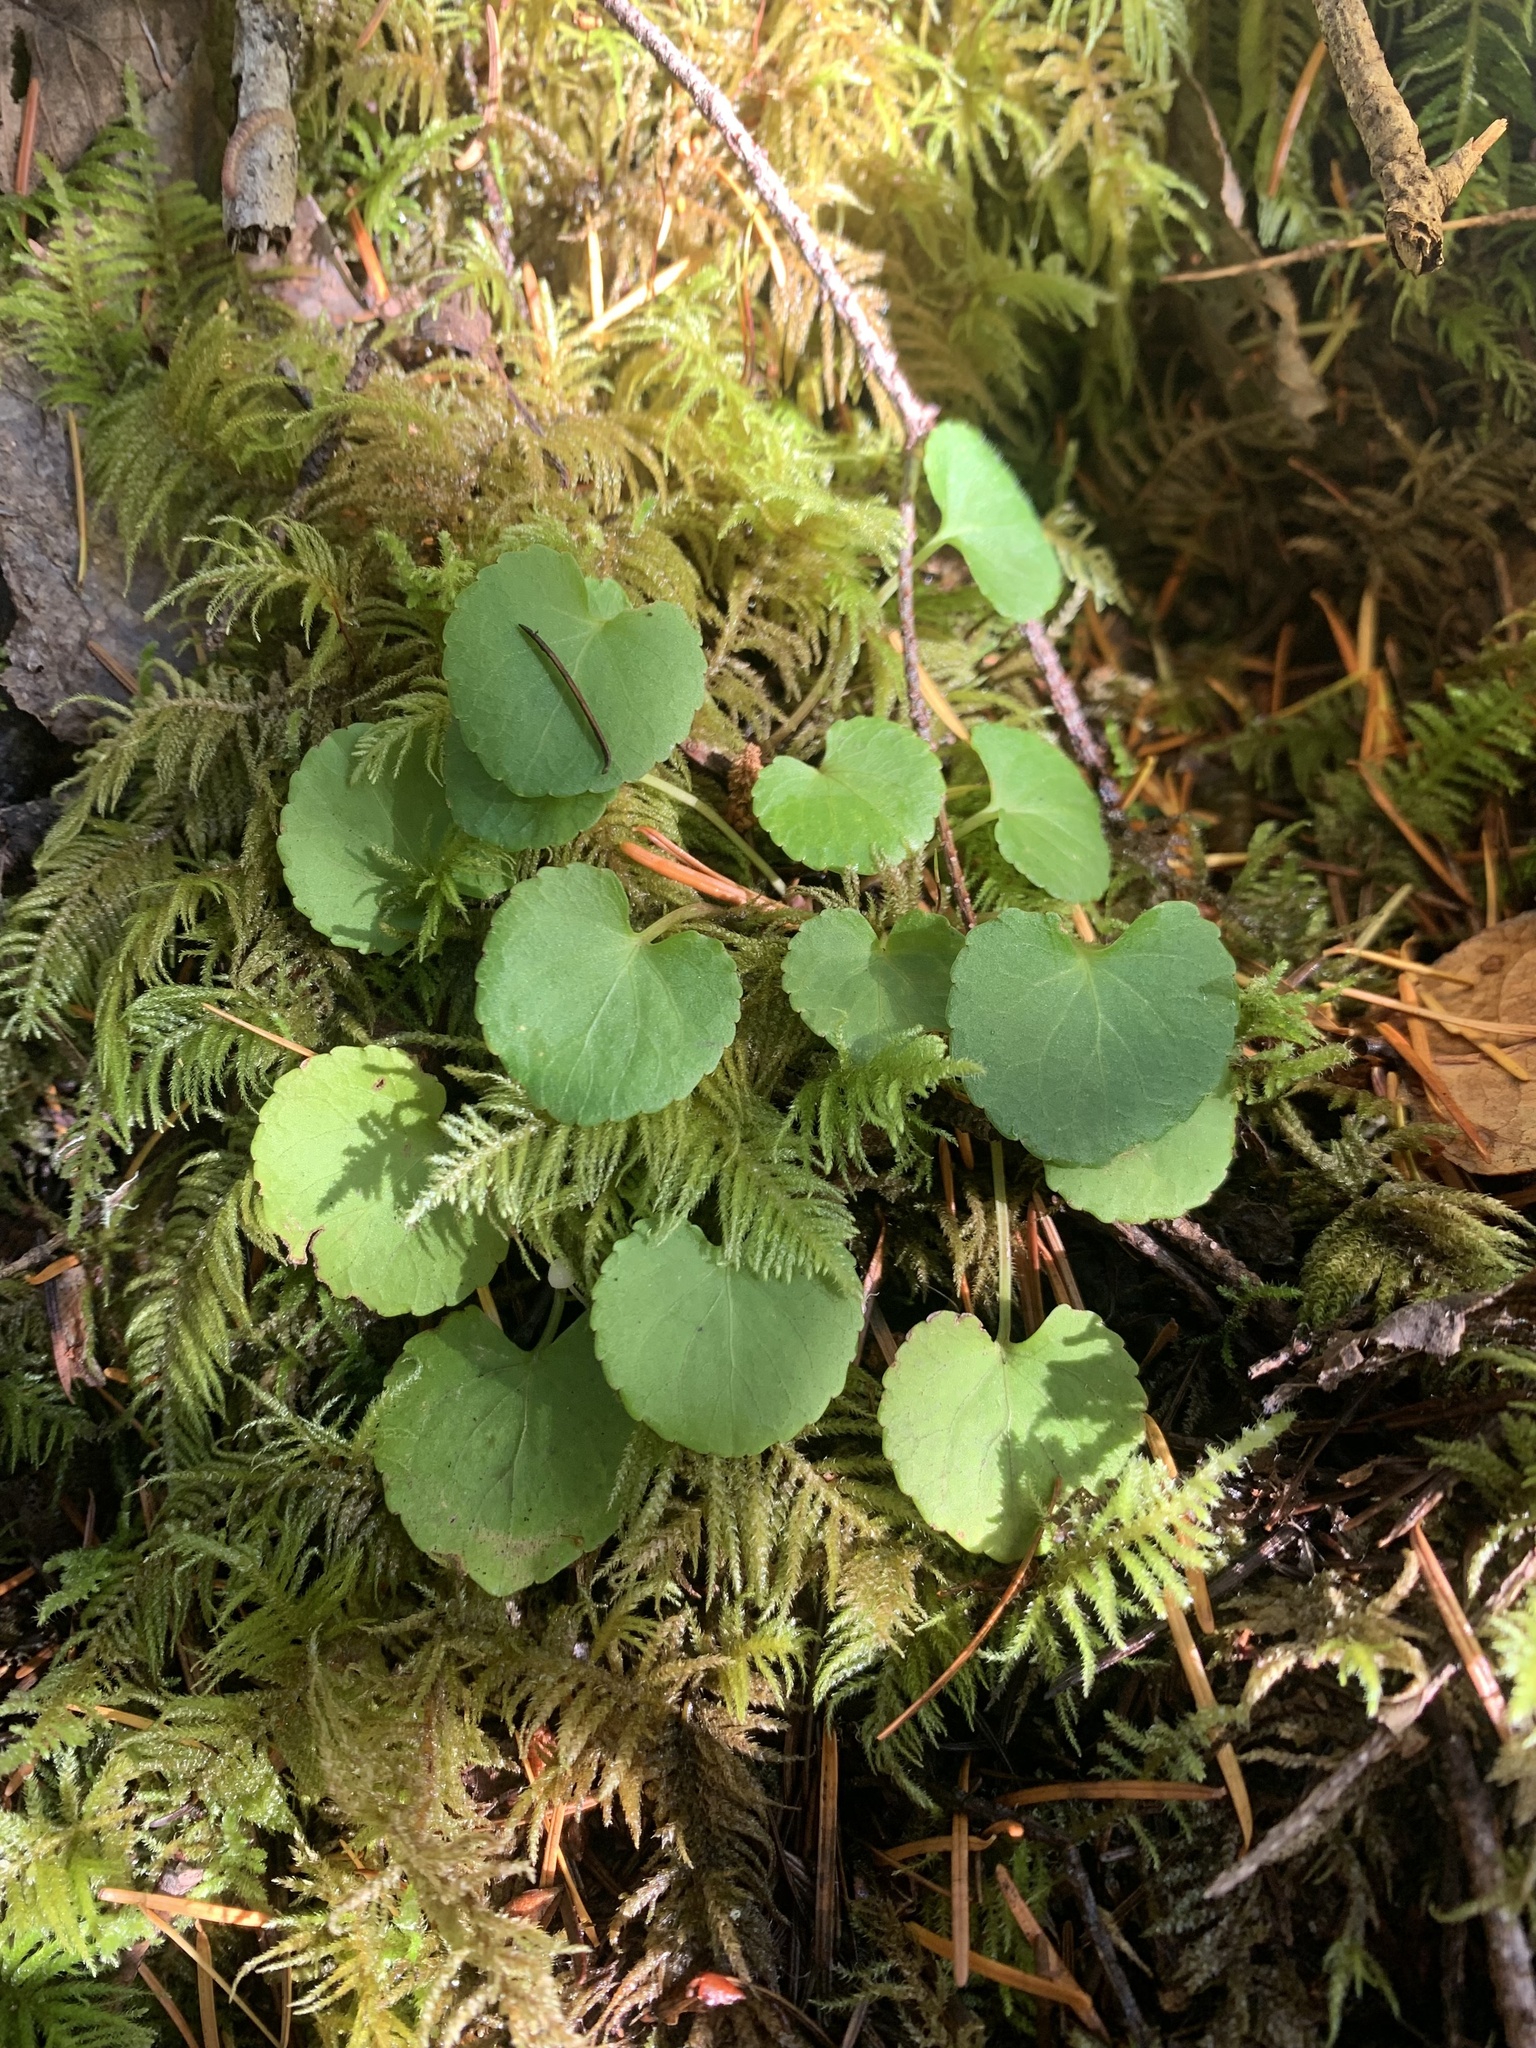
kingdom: Plantae
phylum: Tracheophyta
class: Magnoliopsida
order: Malpighiales
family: Violaceae
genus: Viola
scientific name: Viola sempervirens
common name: Evergreen violet
